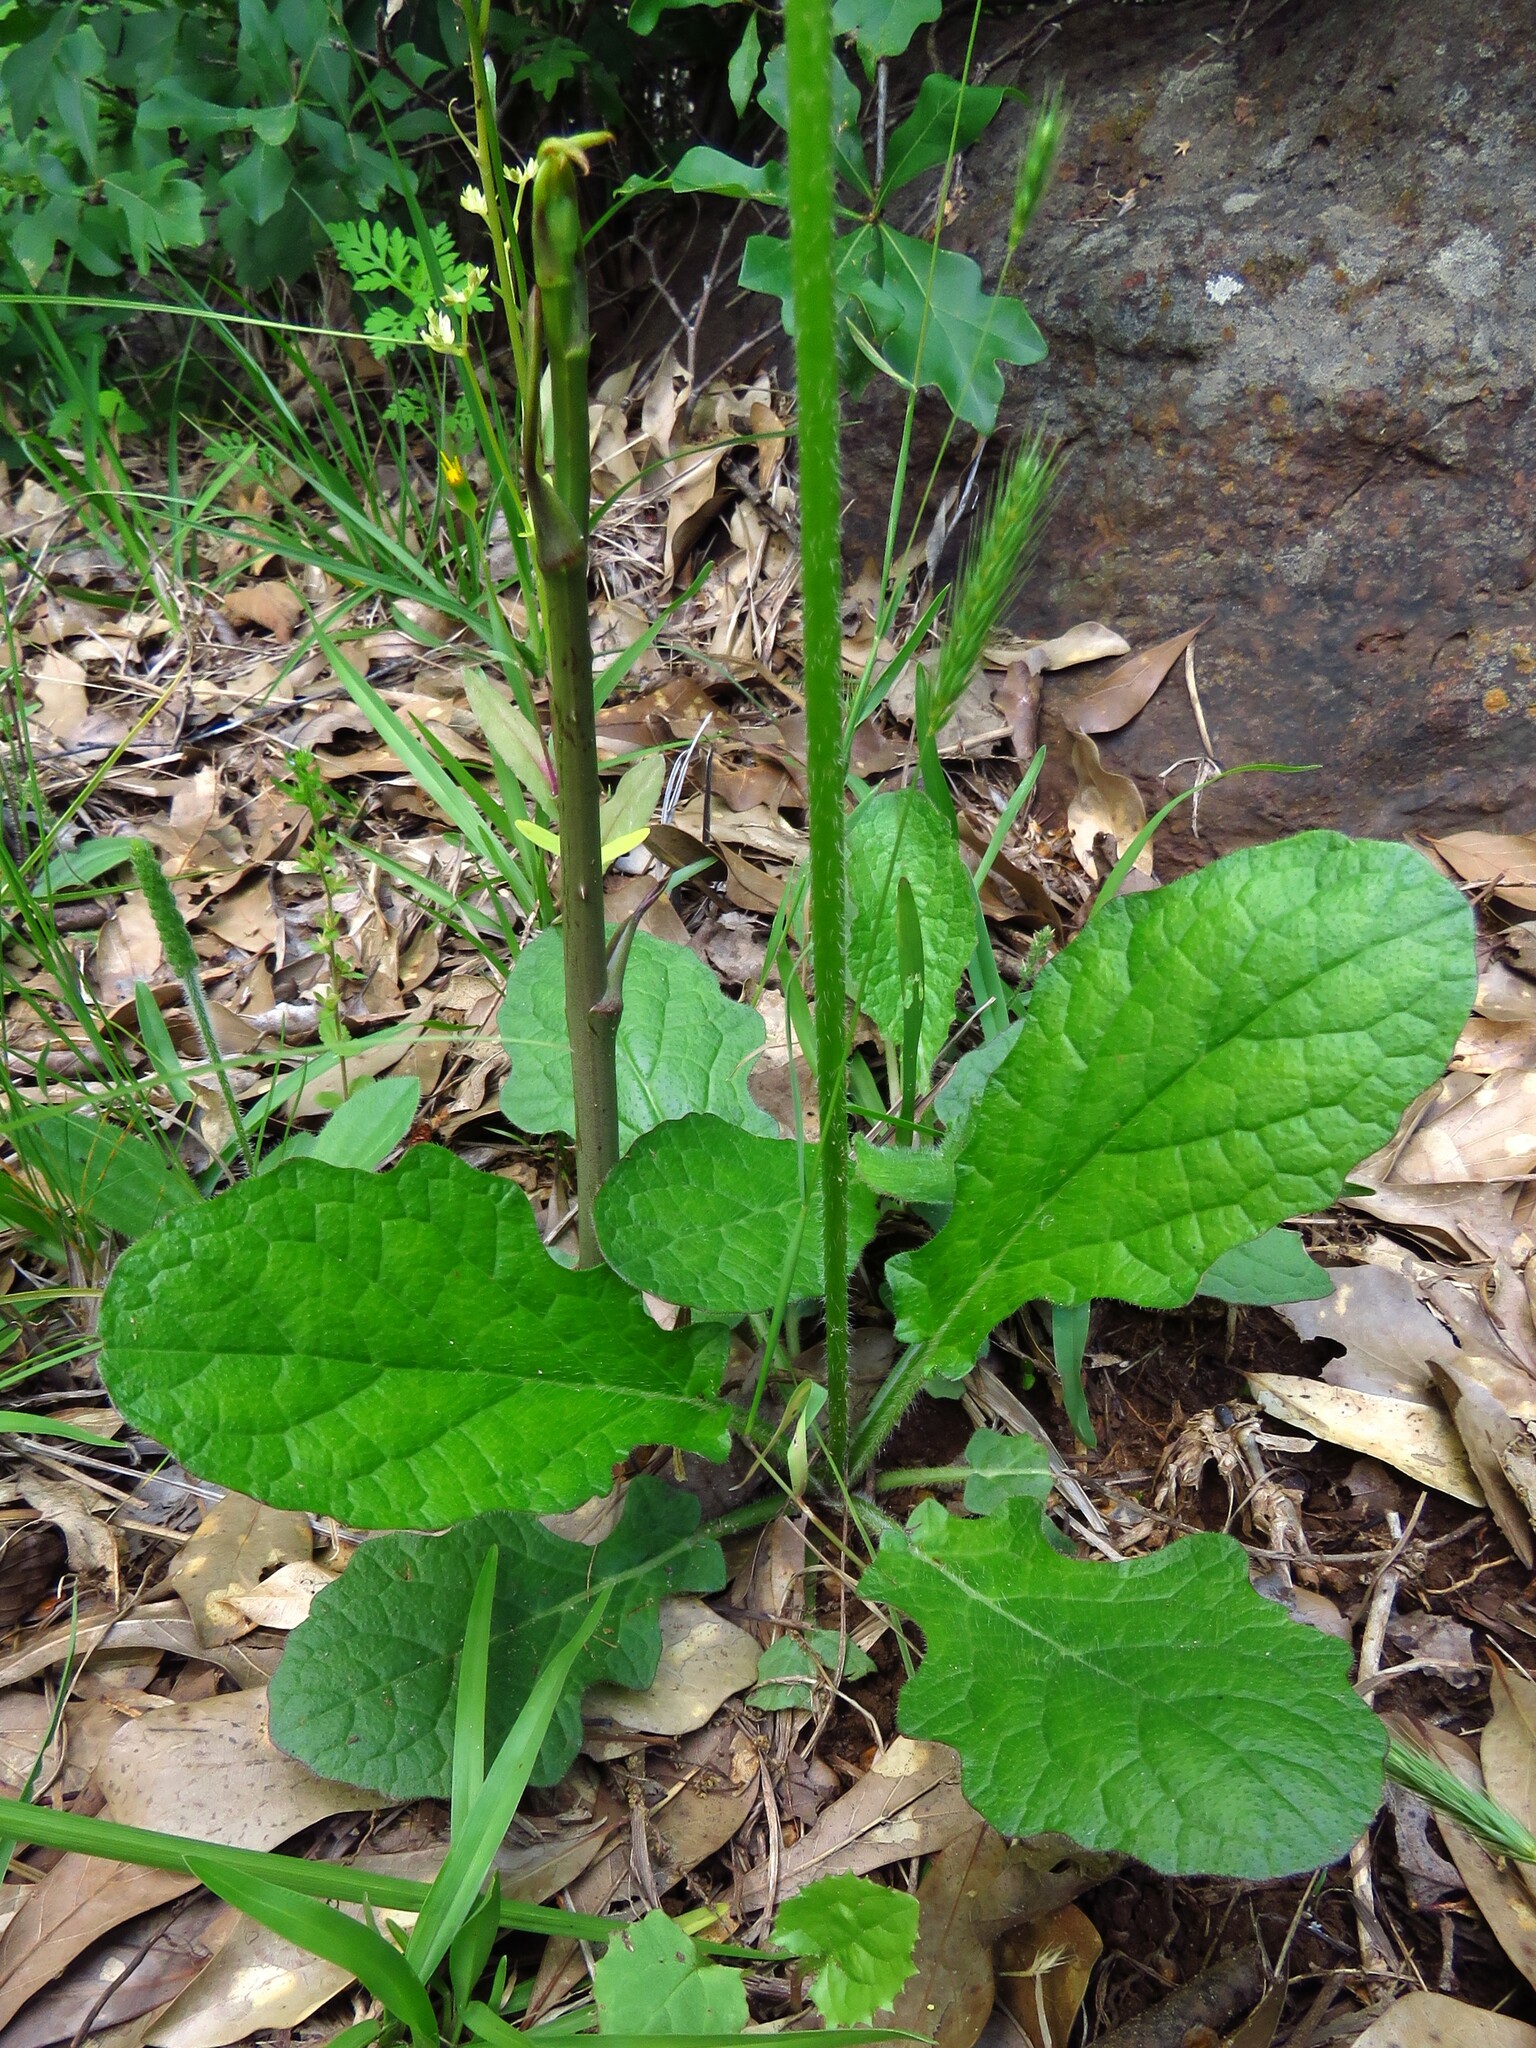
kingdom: Plantae
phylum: Tracheophyta
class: Magnoliopsida
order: Lamiales
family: Lamiaceae
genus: Salvia
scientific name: Salvia lyrata
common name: Cancerweed
